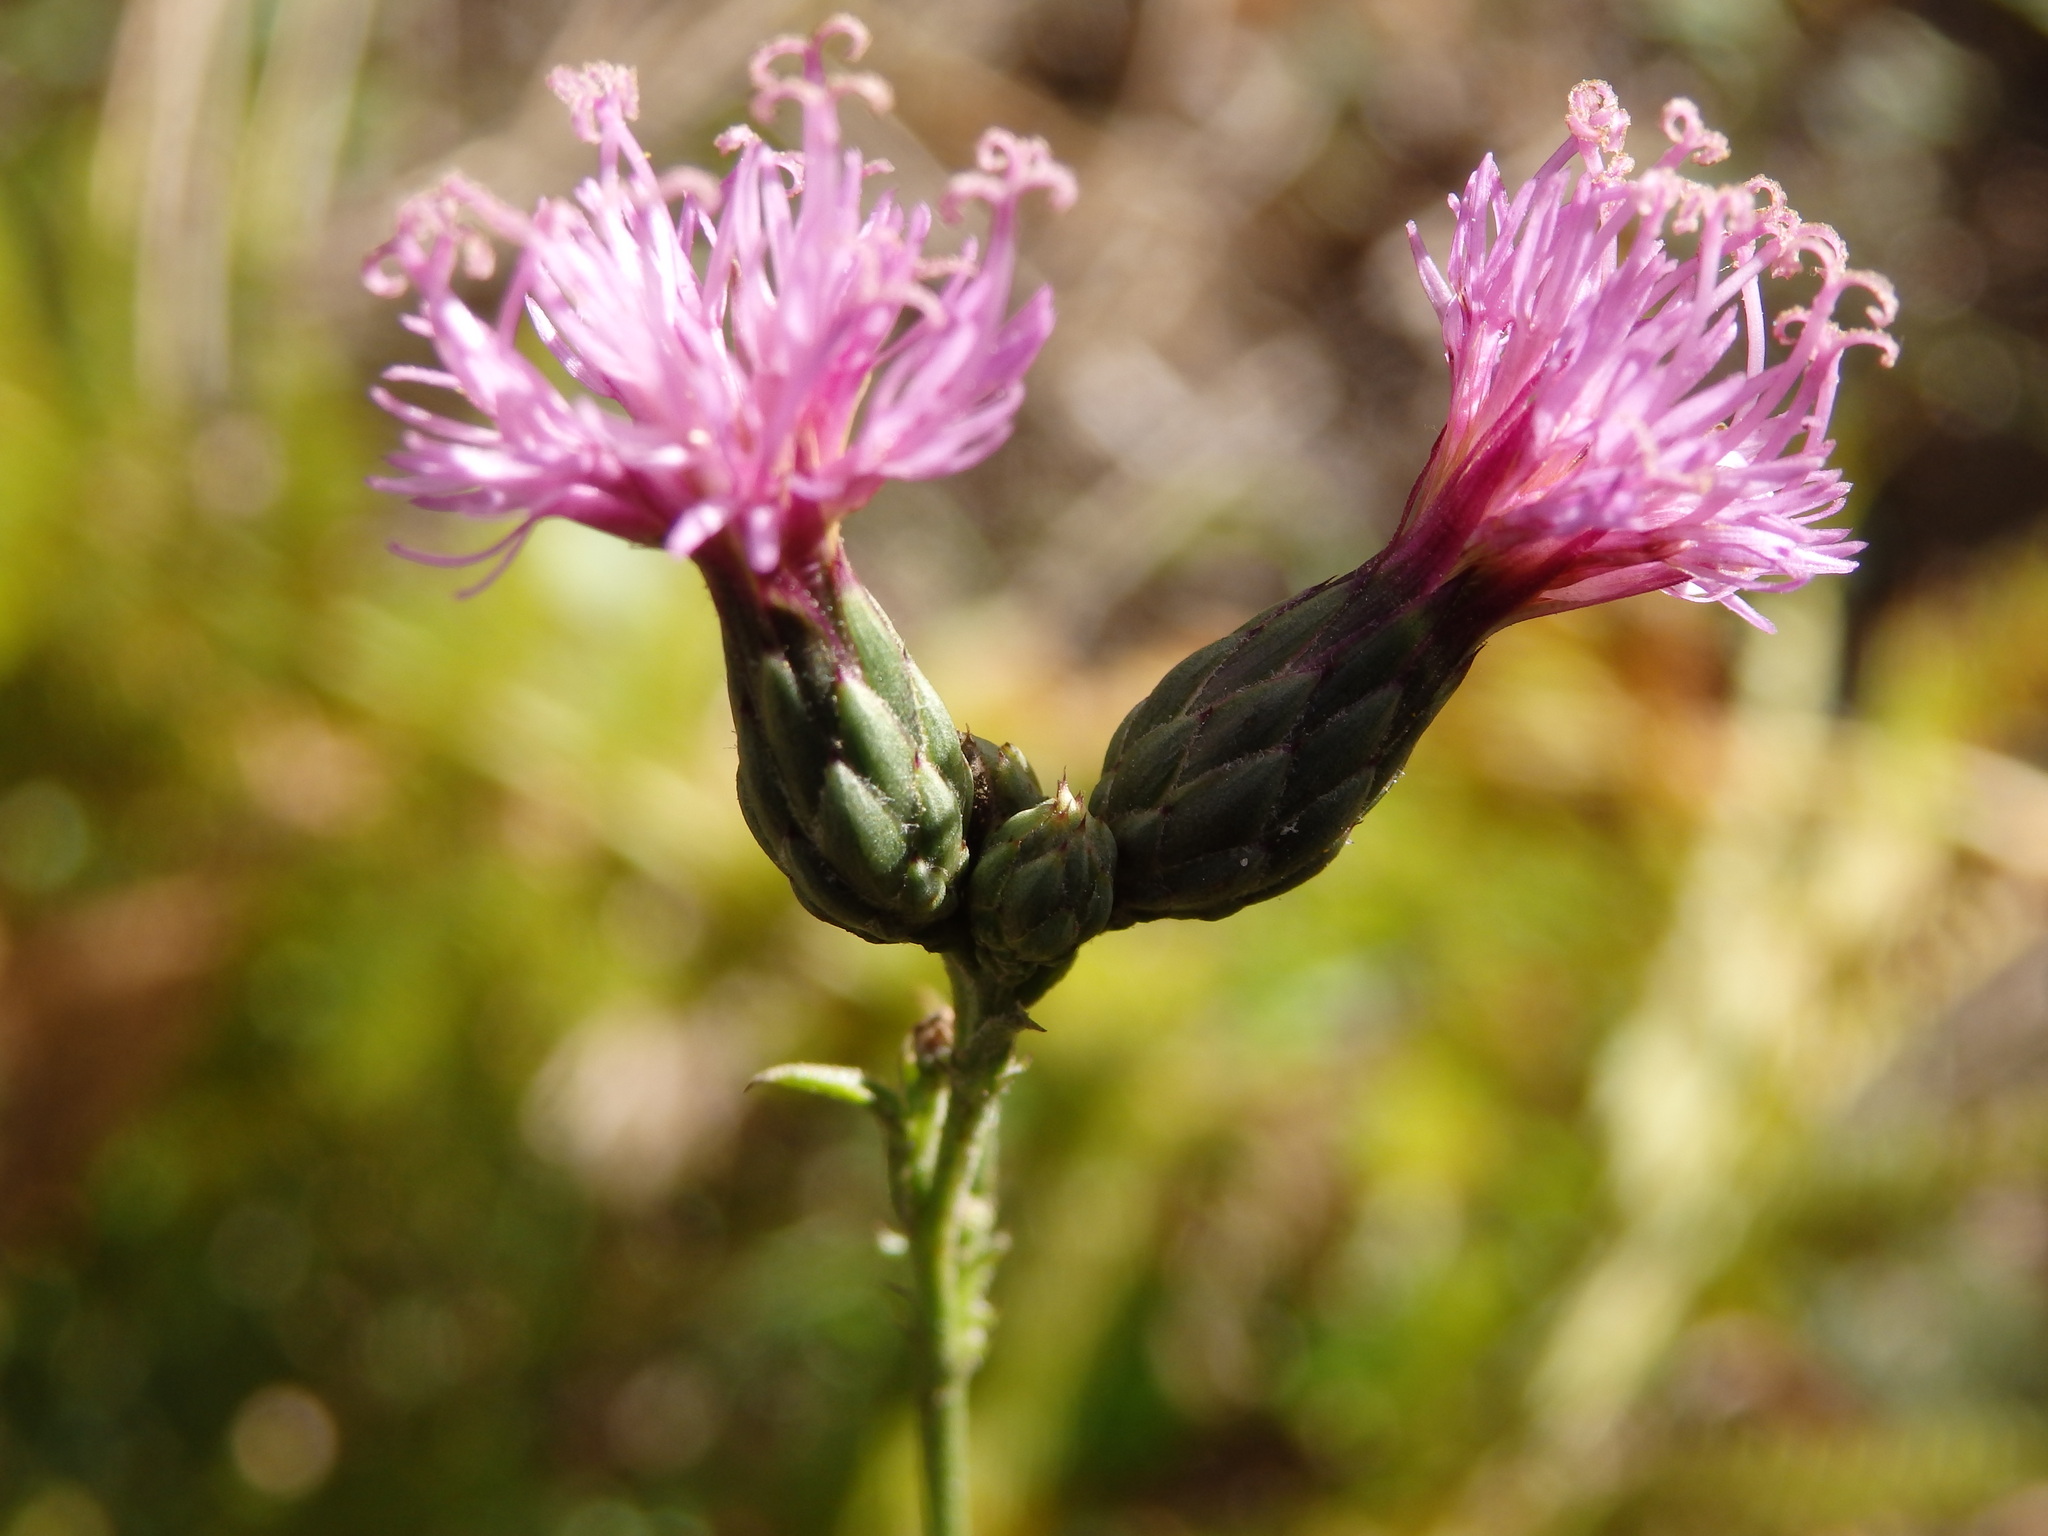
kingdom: Plantae
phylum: Tracheophyta
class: Magnoliopsida
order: Asterales
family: Asteraceae
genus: Serratula
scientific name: Serratula tinctoria
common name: Saw-wort
